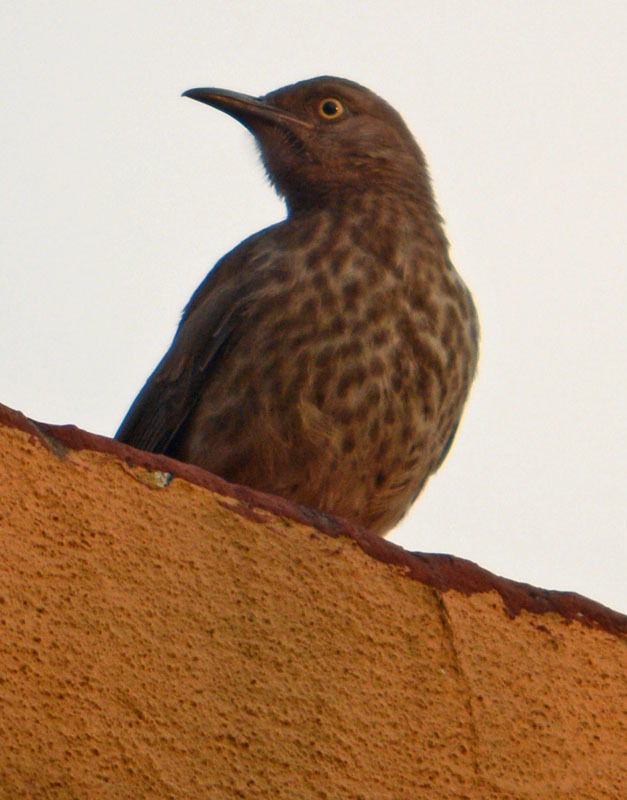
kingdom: Animalia
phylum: Chordata
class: Aves
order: Passeriformes
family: Mimidae
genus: Toxostoma
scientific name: Toxostoma curvirostre
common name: Curve-billed thrasher
